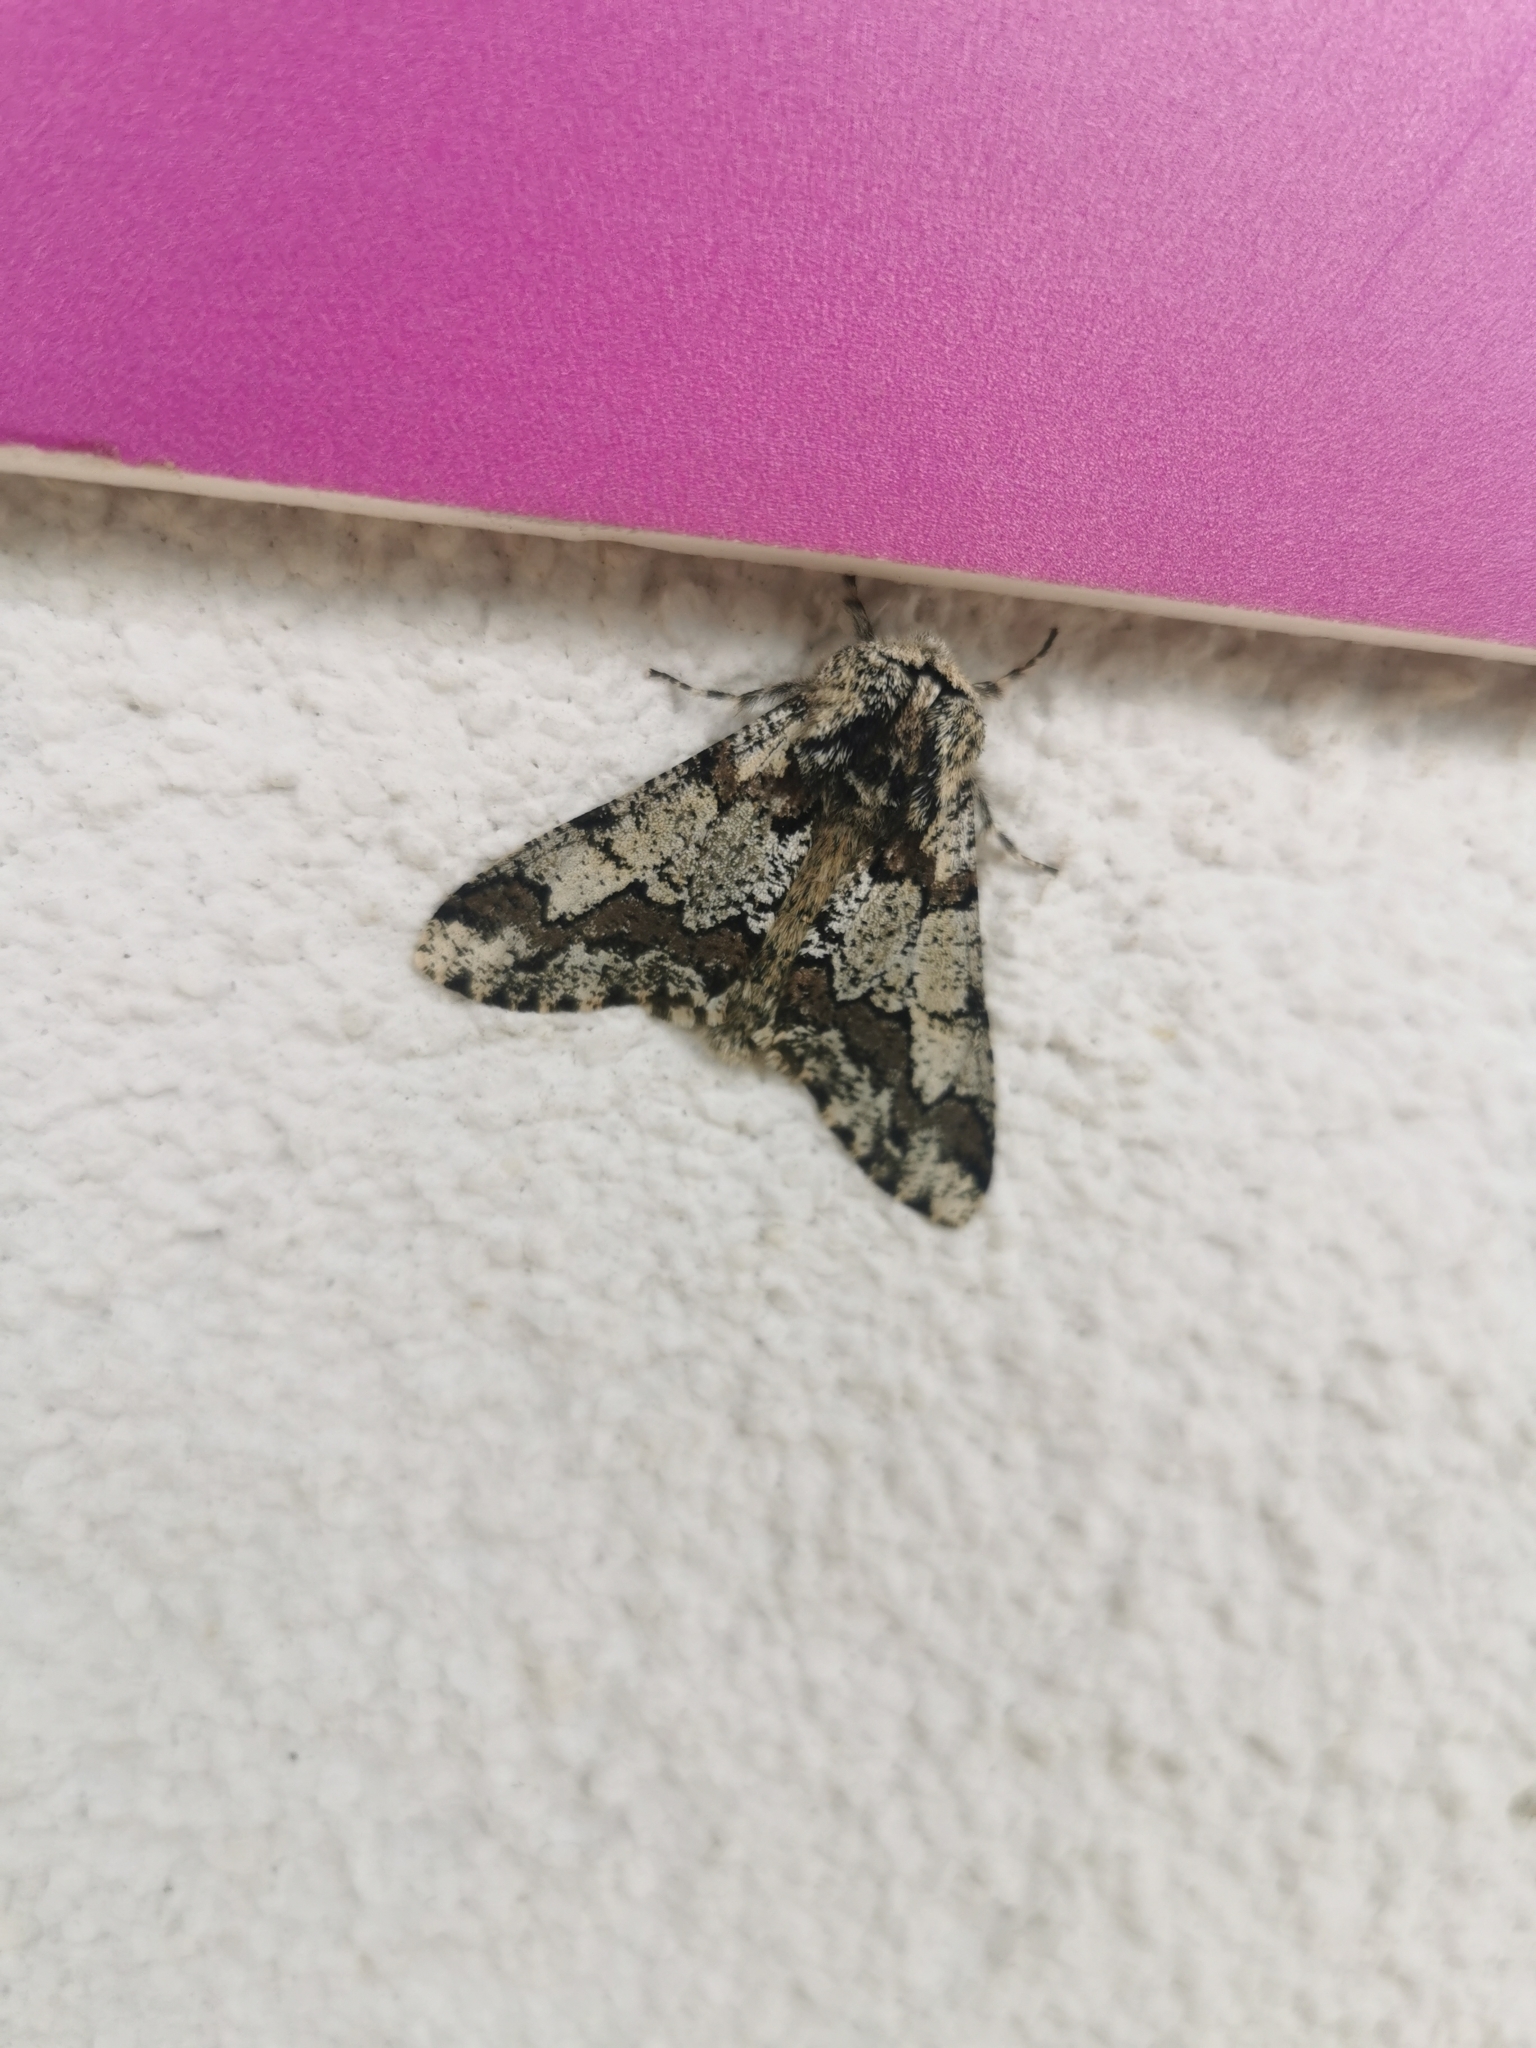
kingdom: Animalia
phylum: Arthropoda
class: Insecta
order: Lepidoptera
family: Geometridae
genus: Biston
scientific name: Biston strataria
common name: Oak beauty
